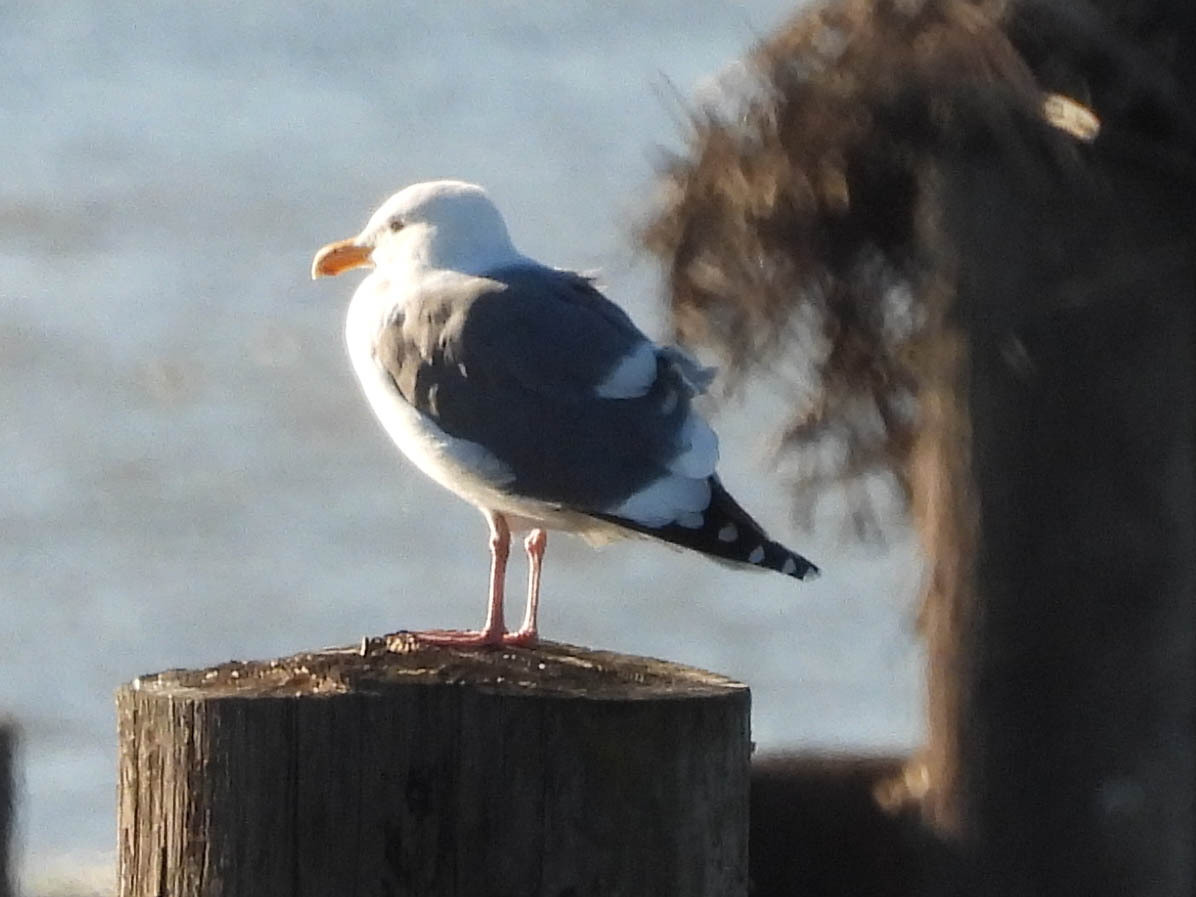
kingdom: Animalia
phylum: Chordata
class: Aves
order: Charadriiformes
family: Laridae
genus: Larus
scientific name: Larus occidentalis
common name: Western gull
